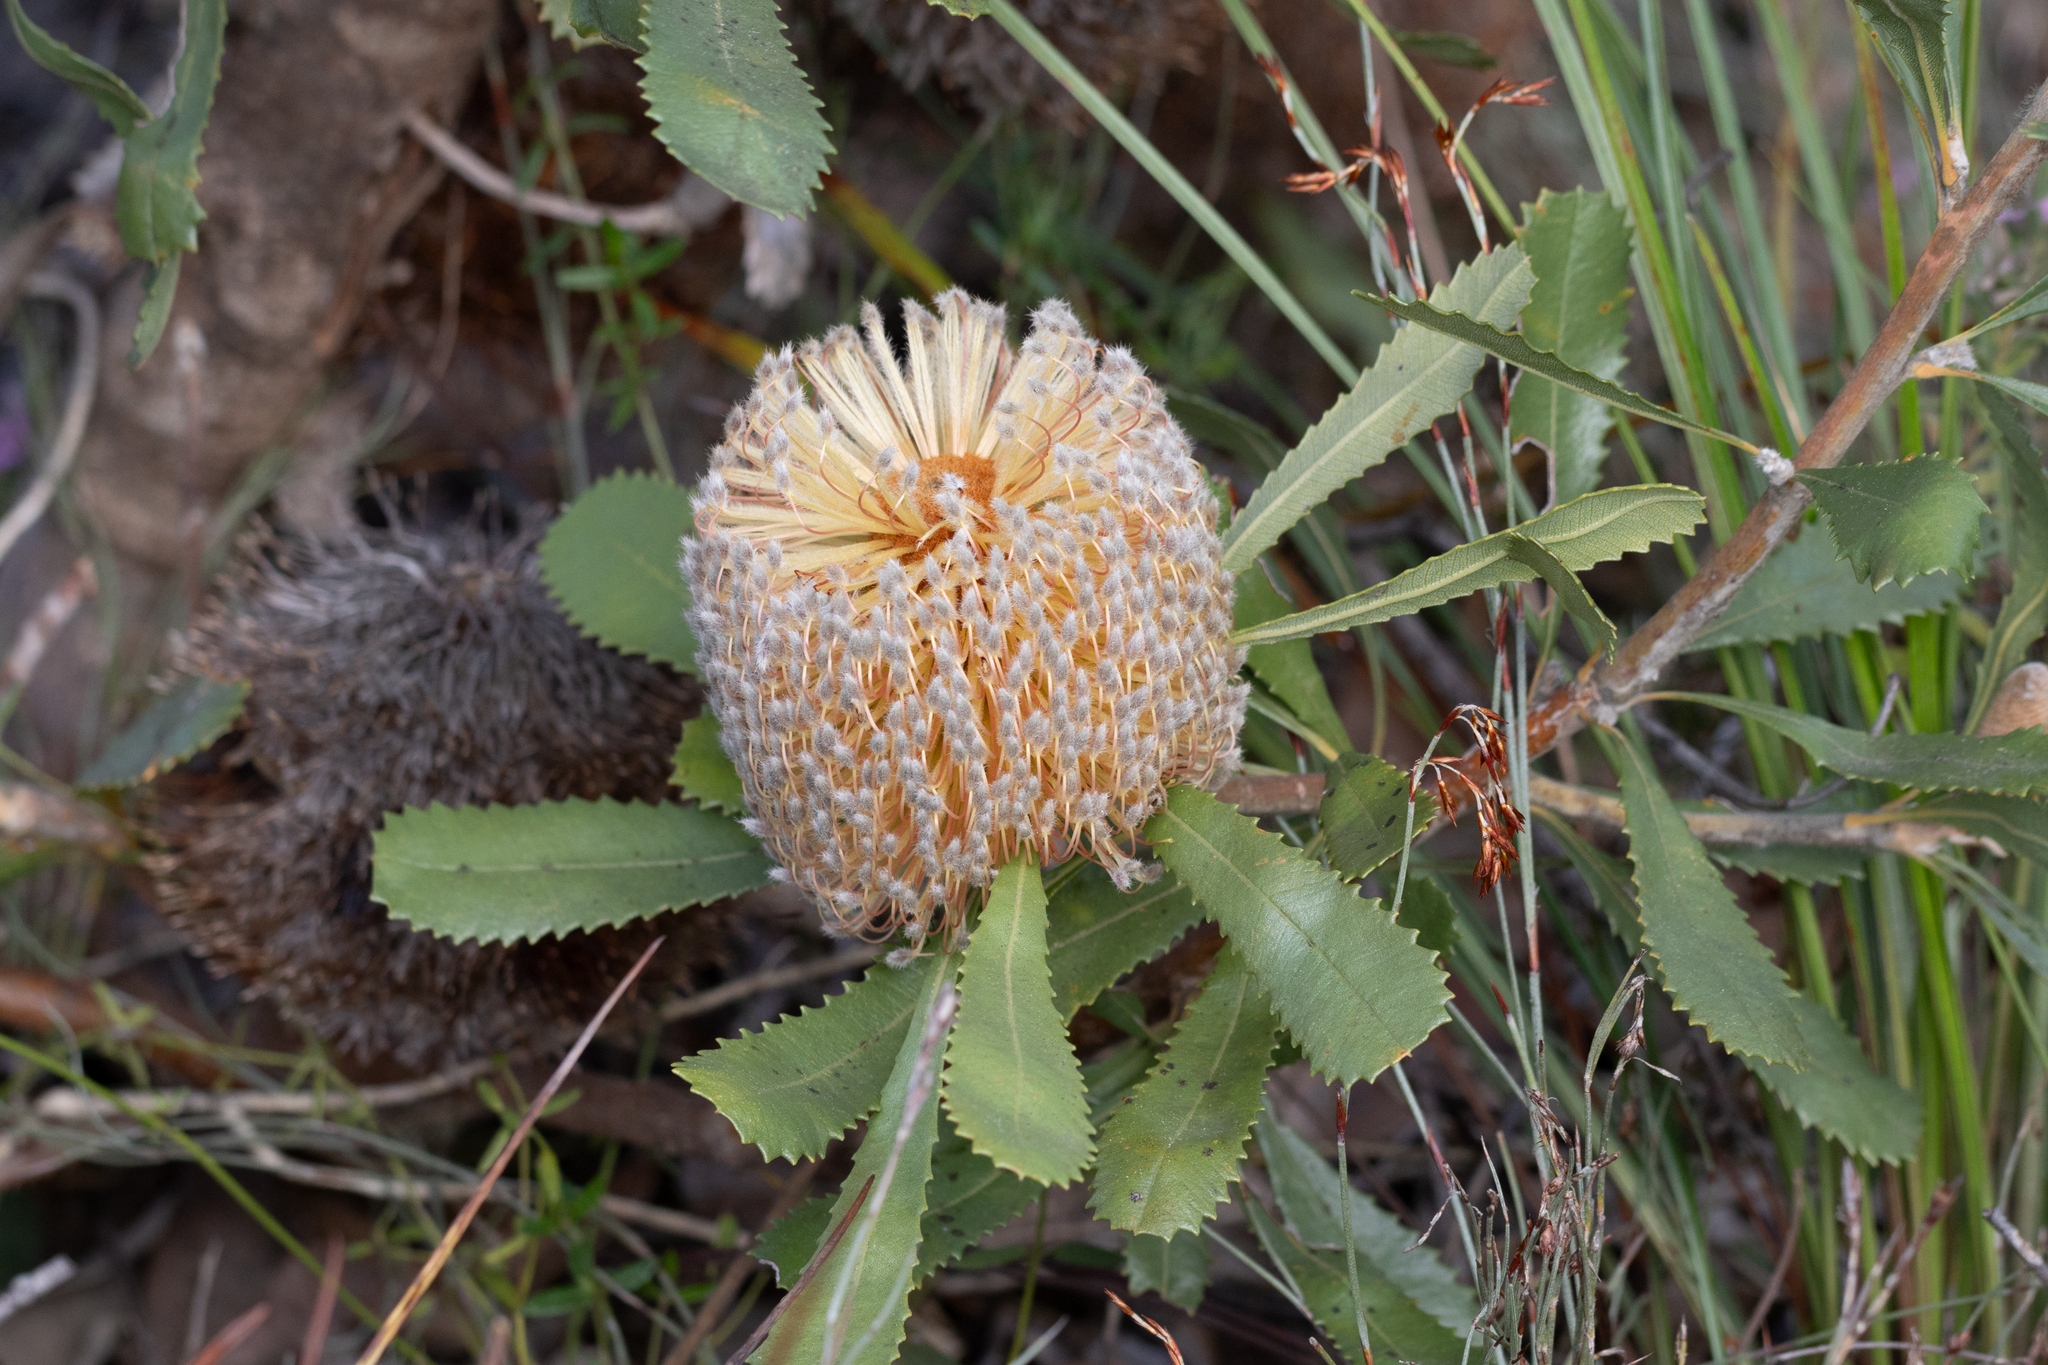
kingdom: Plantae
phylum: Tracheophyta
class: Magnoliopsida
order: Proteales
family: Proteaceae
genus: Banksia
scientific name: Banksia ornata
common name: Desert banksia
